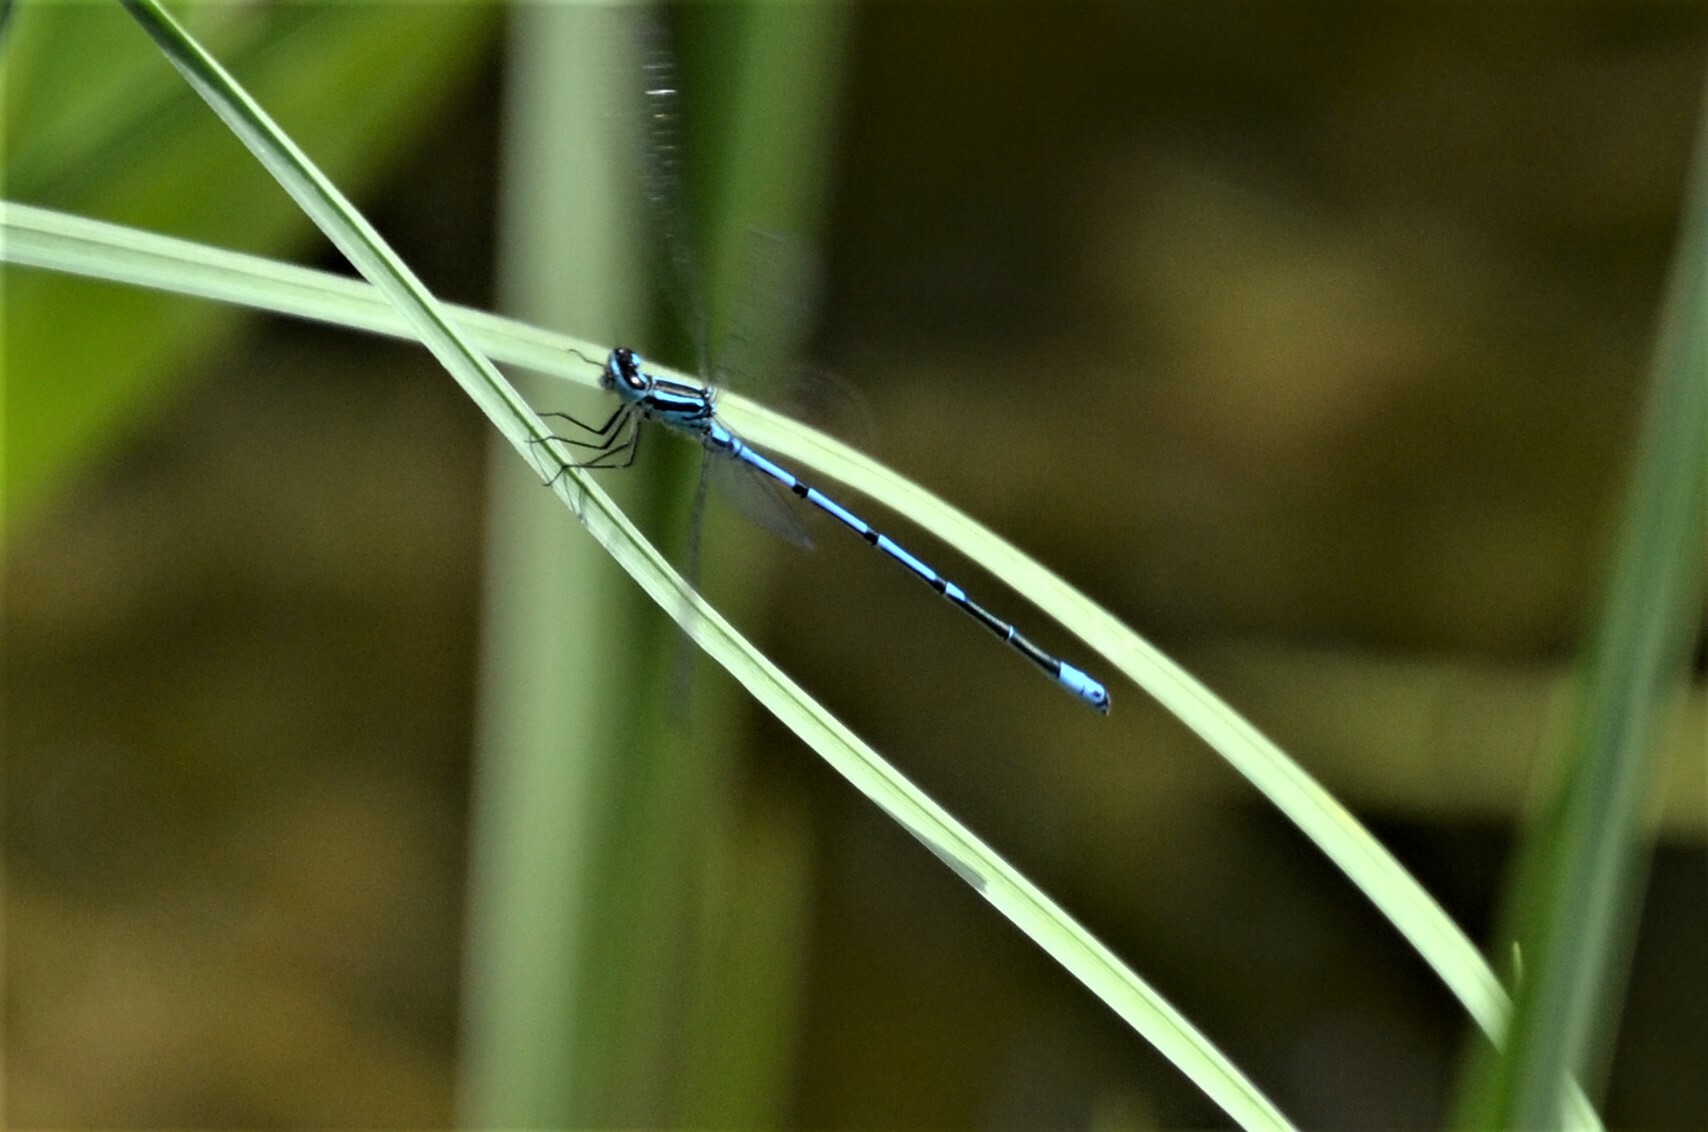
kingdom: Animalia
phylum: Arthropoda
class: Insecta
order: Odonata
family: Coenagrionidae
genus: Coenagrion
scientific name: Coenagrion puella
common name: Azure damselfly
